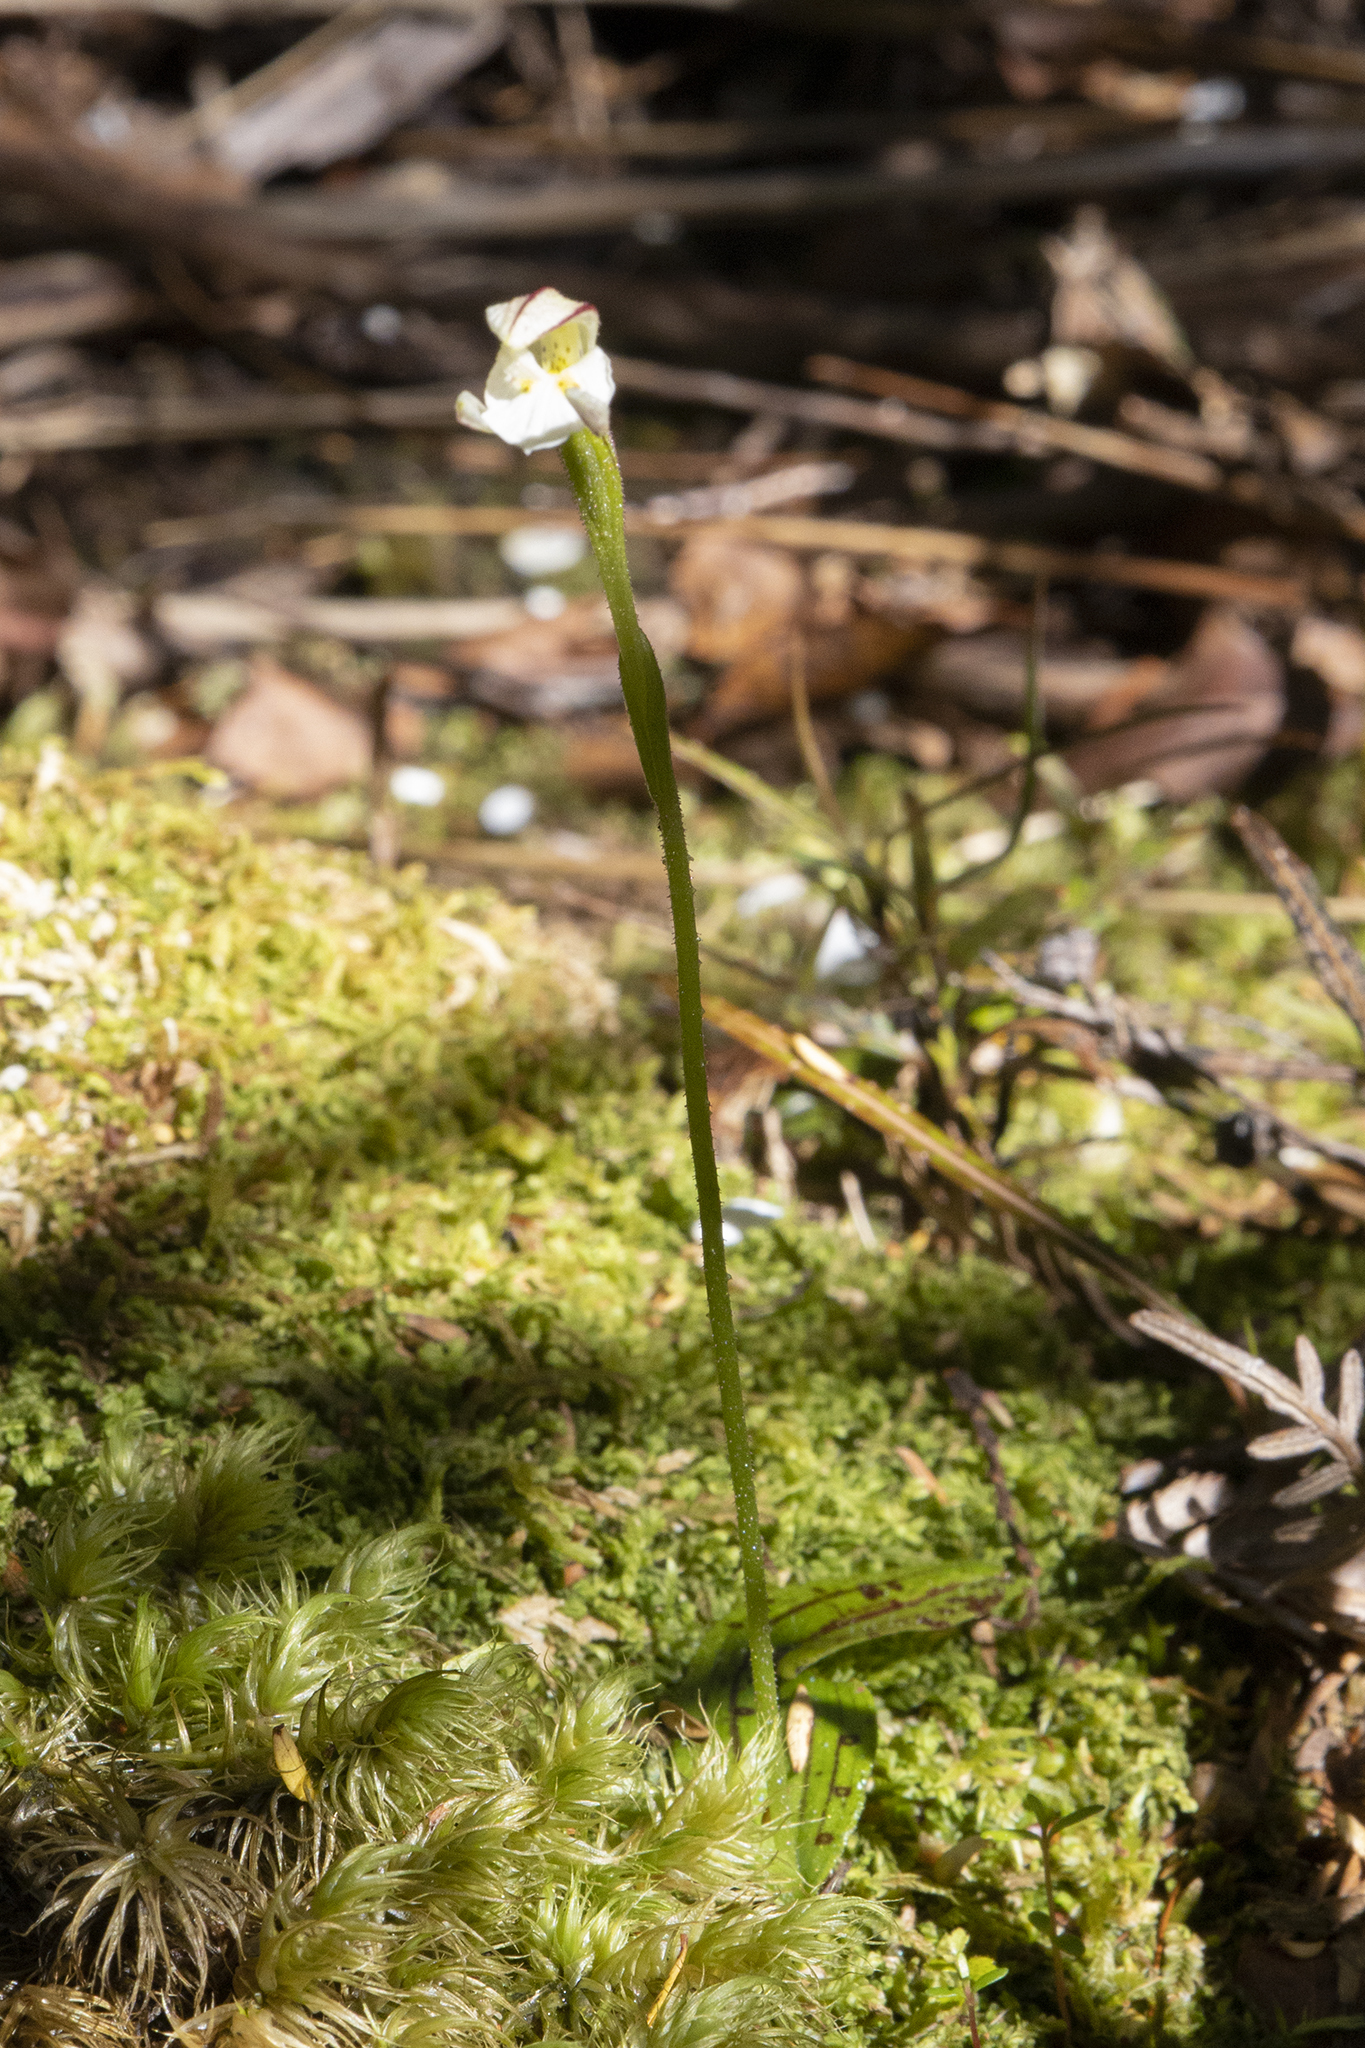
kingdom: Plantae
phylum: Tracheophyta
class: Liliopsida
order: Asparagales
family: Orchidaceae
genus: Aporostylis
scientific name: Aporostylis bifolia
